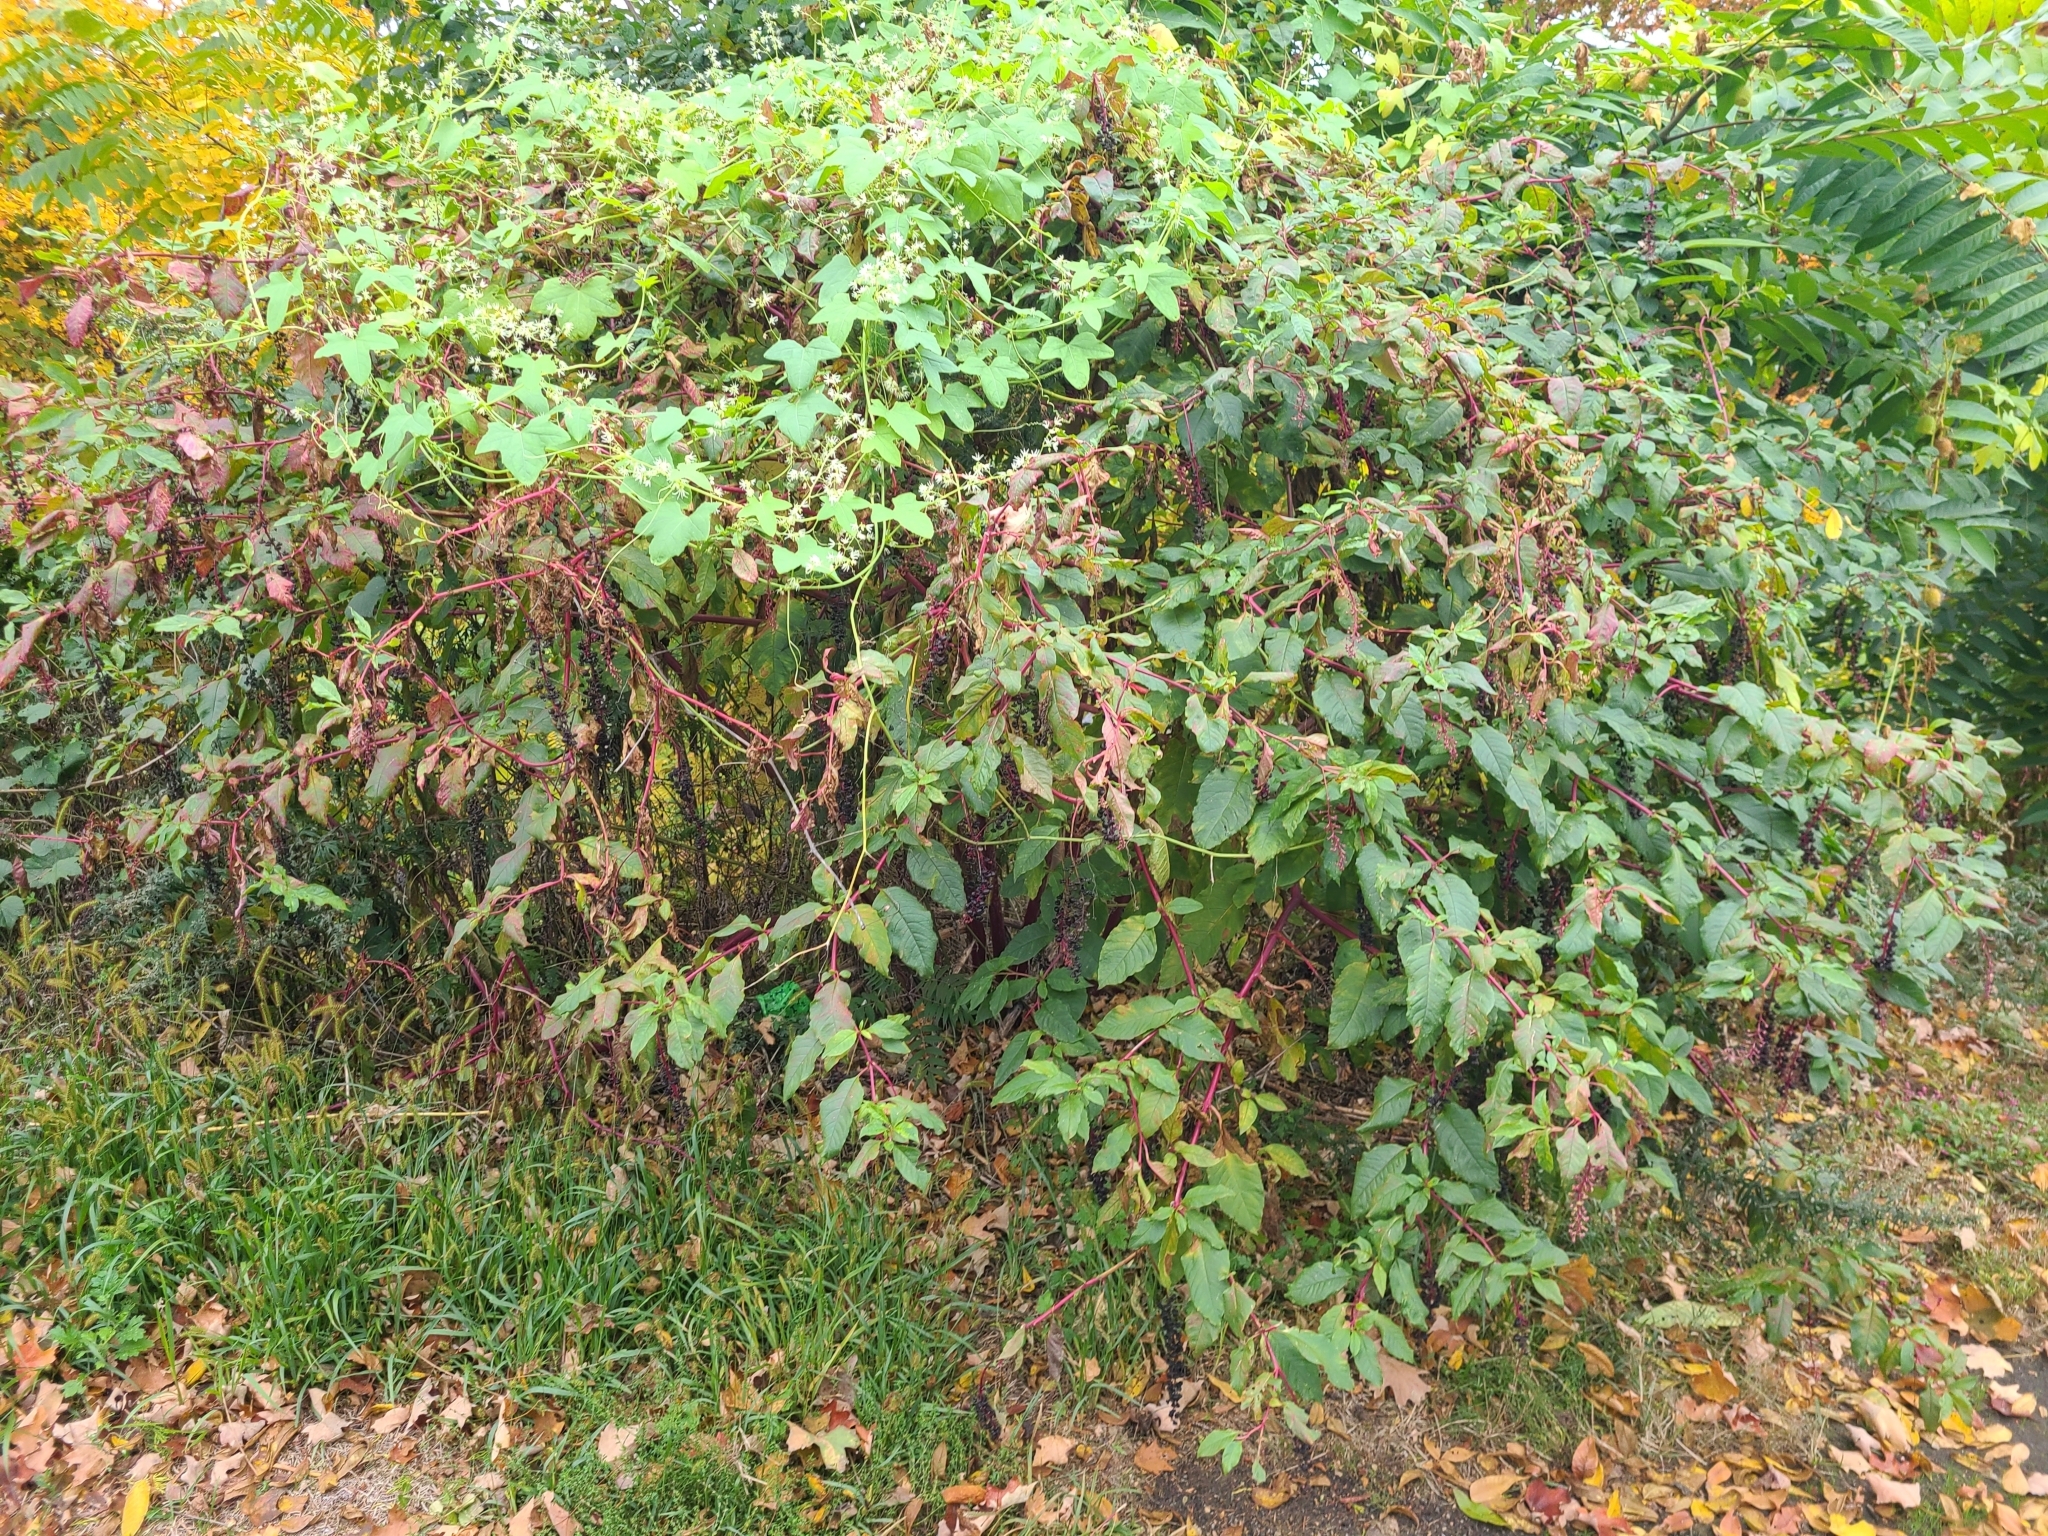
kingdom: Plantae
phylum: Tracheophyta
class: Magnoliopsida
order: Caryophyllales
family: Phytolaccaceae
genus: Phytolacca
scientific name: Phytolacca americana
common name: American pokeweed
